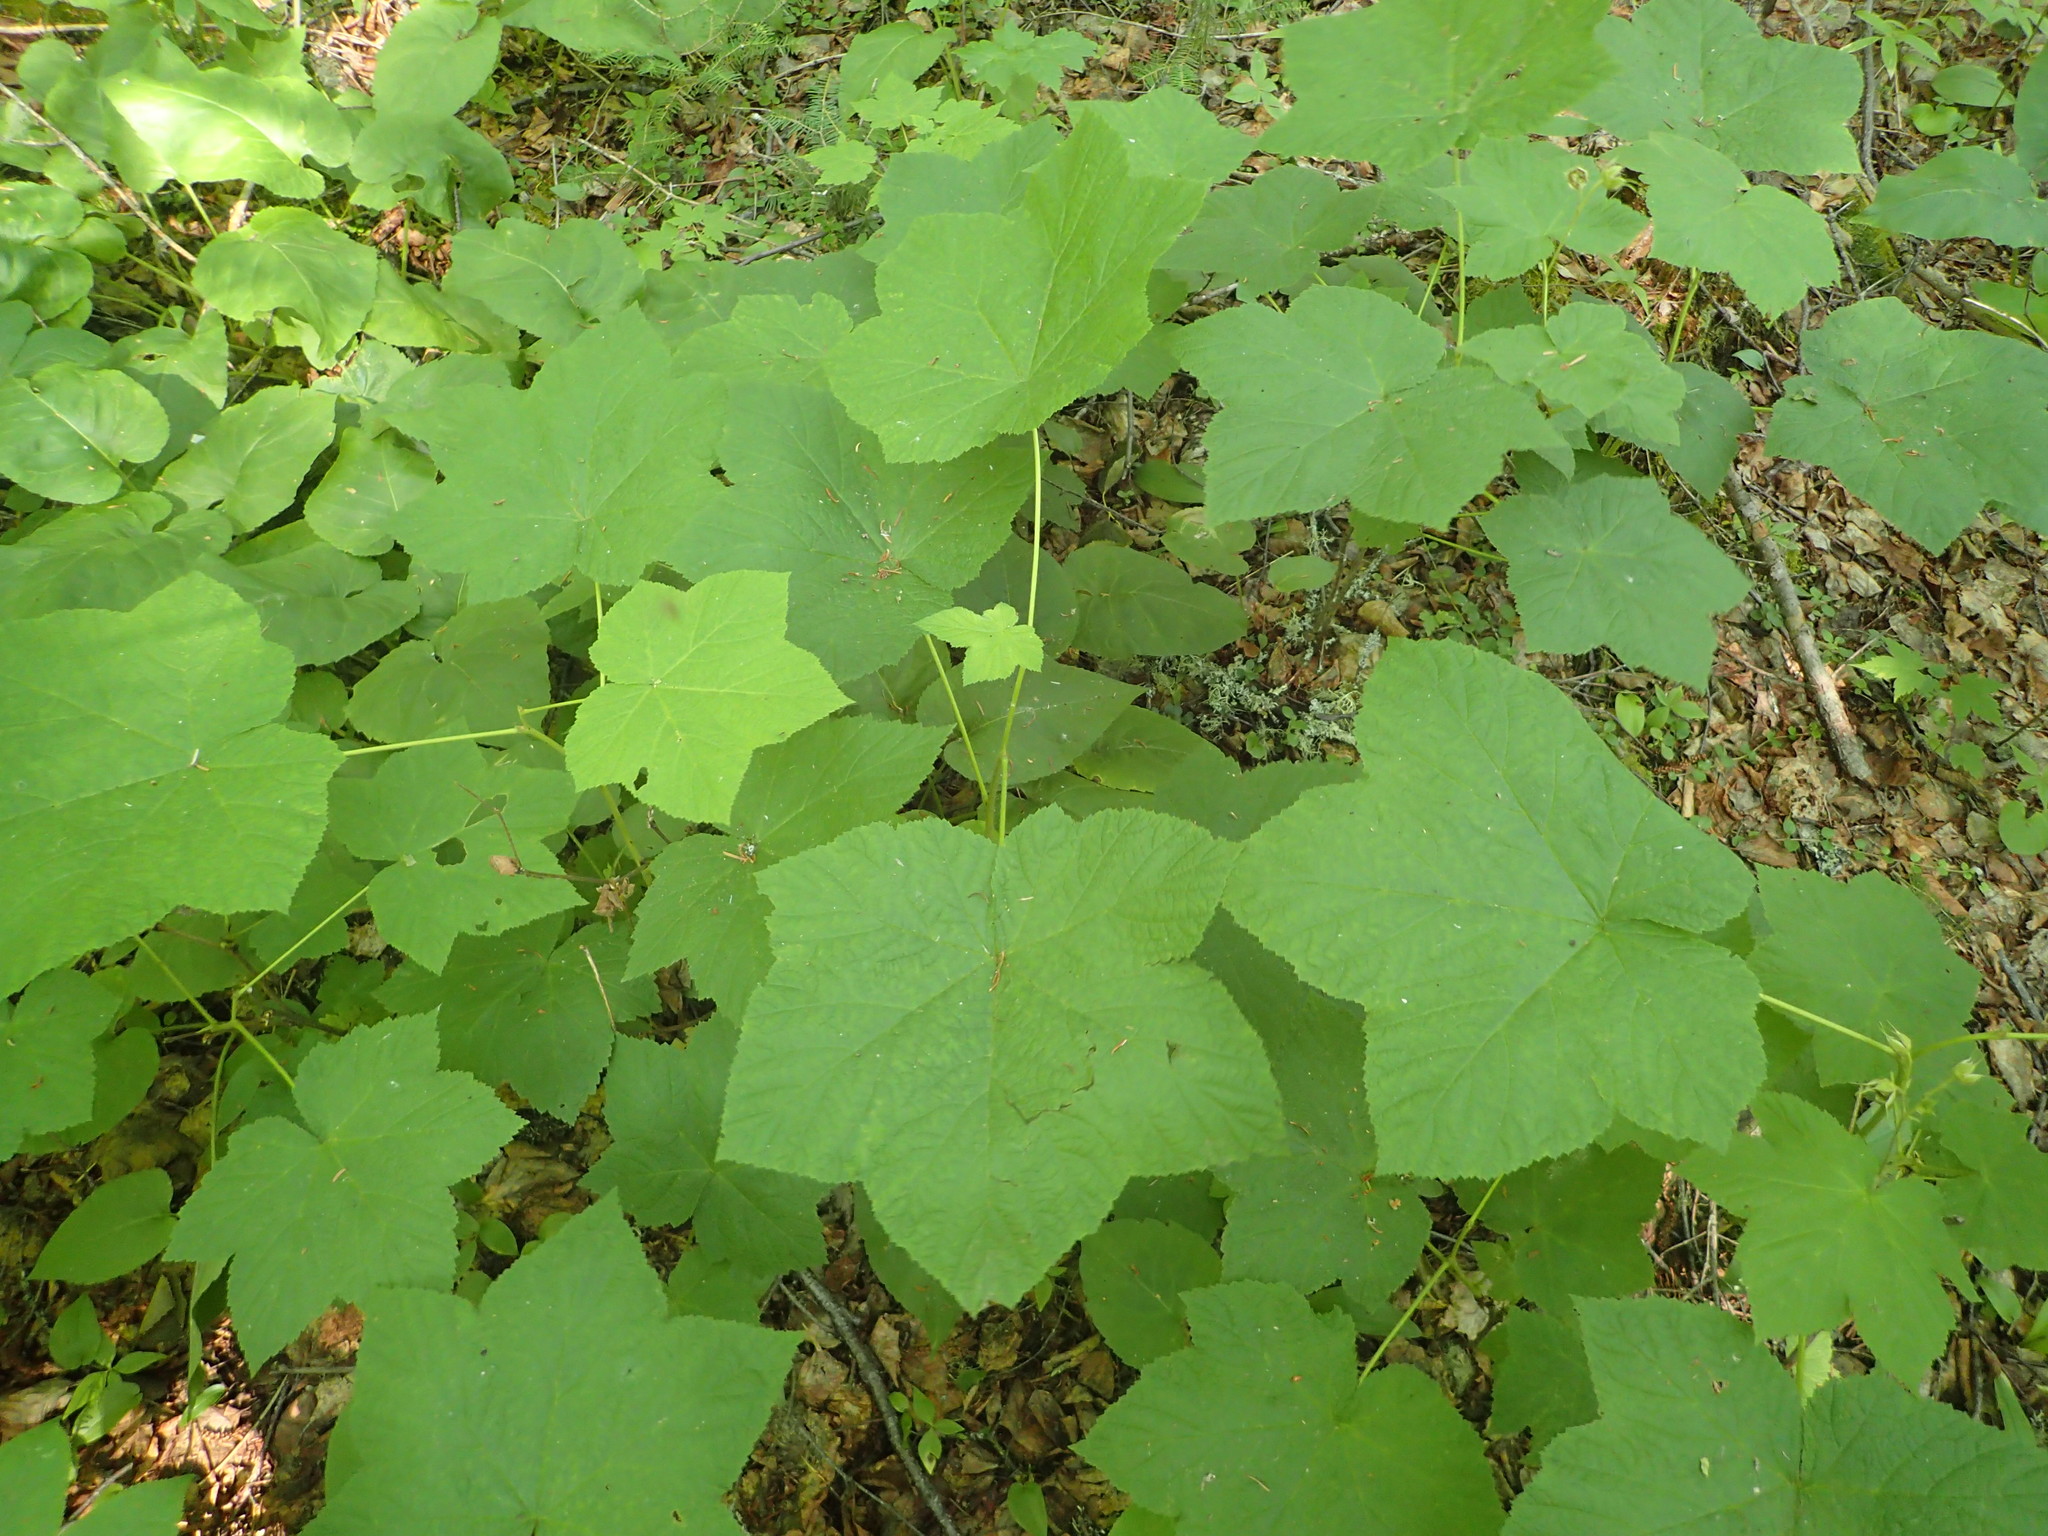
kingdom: Plantae
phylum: Tracheophyta
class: Magnoliopsida
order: Rosales
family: Rosaceae
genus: Rubus
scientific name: Rubus parviflorus
